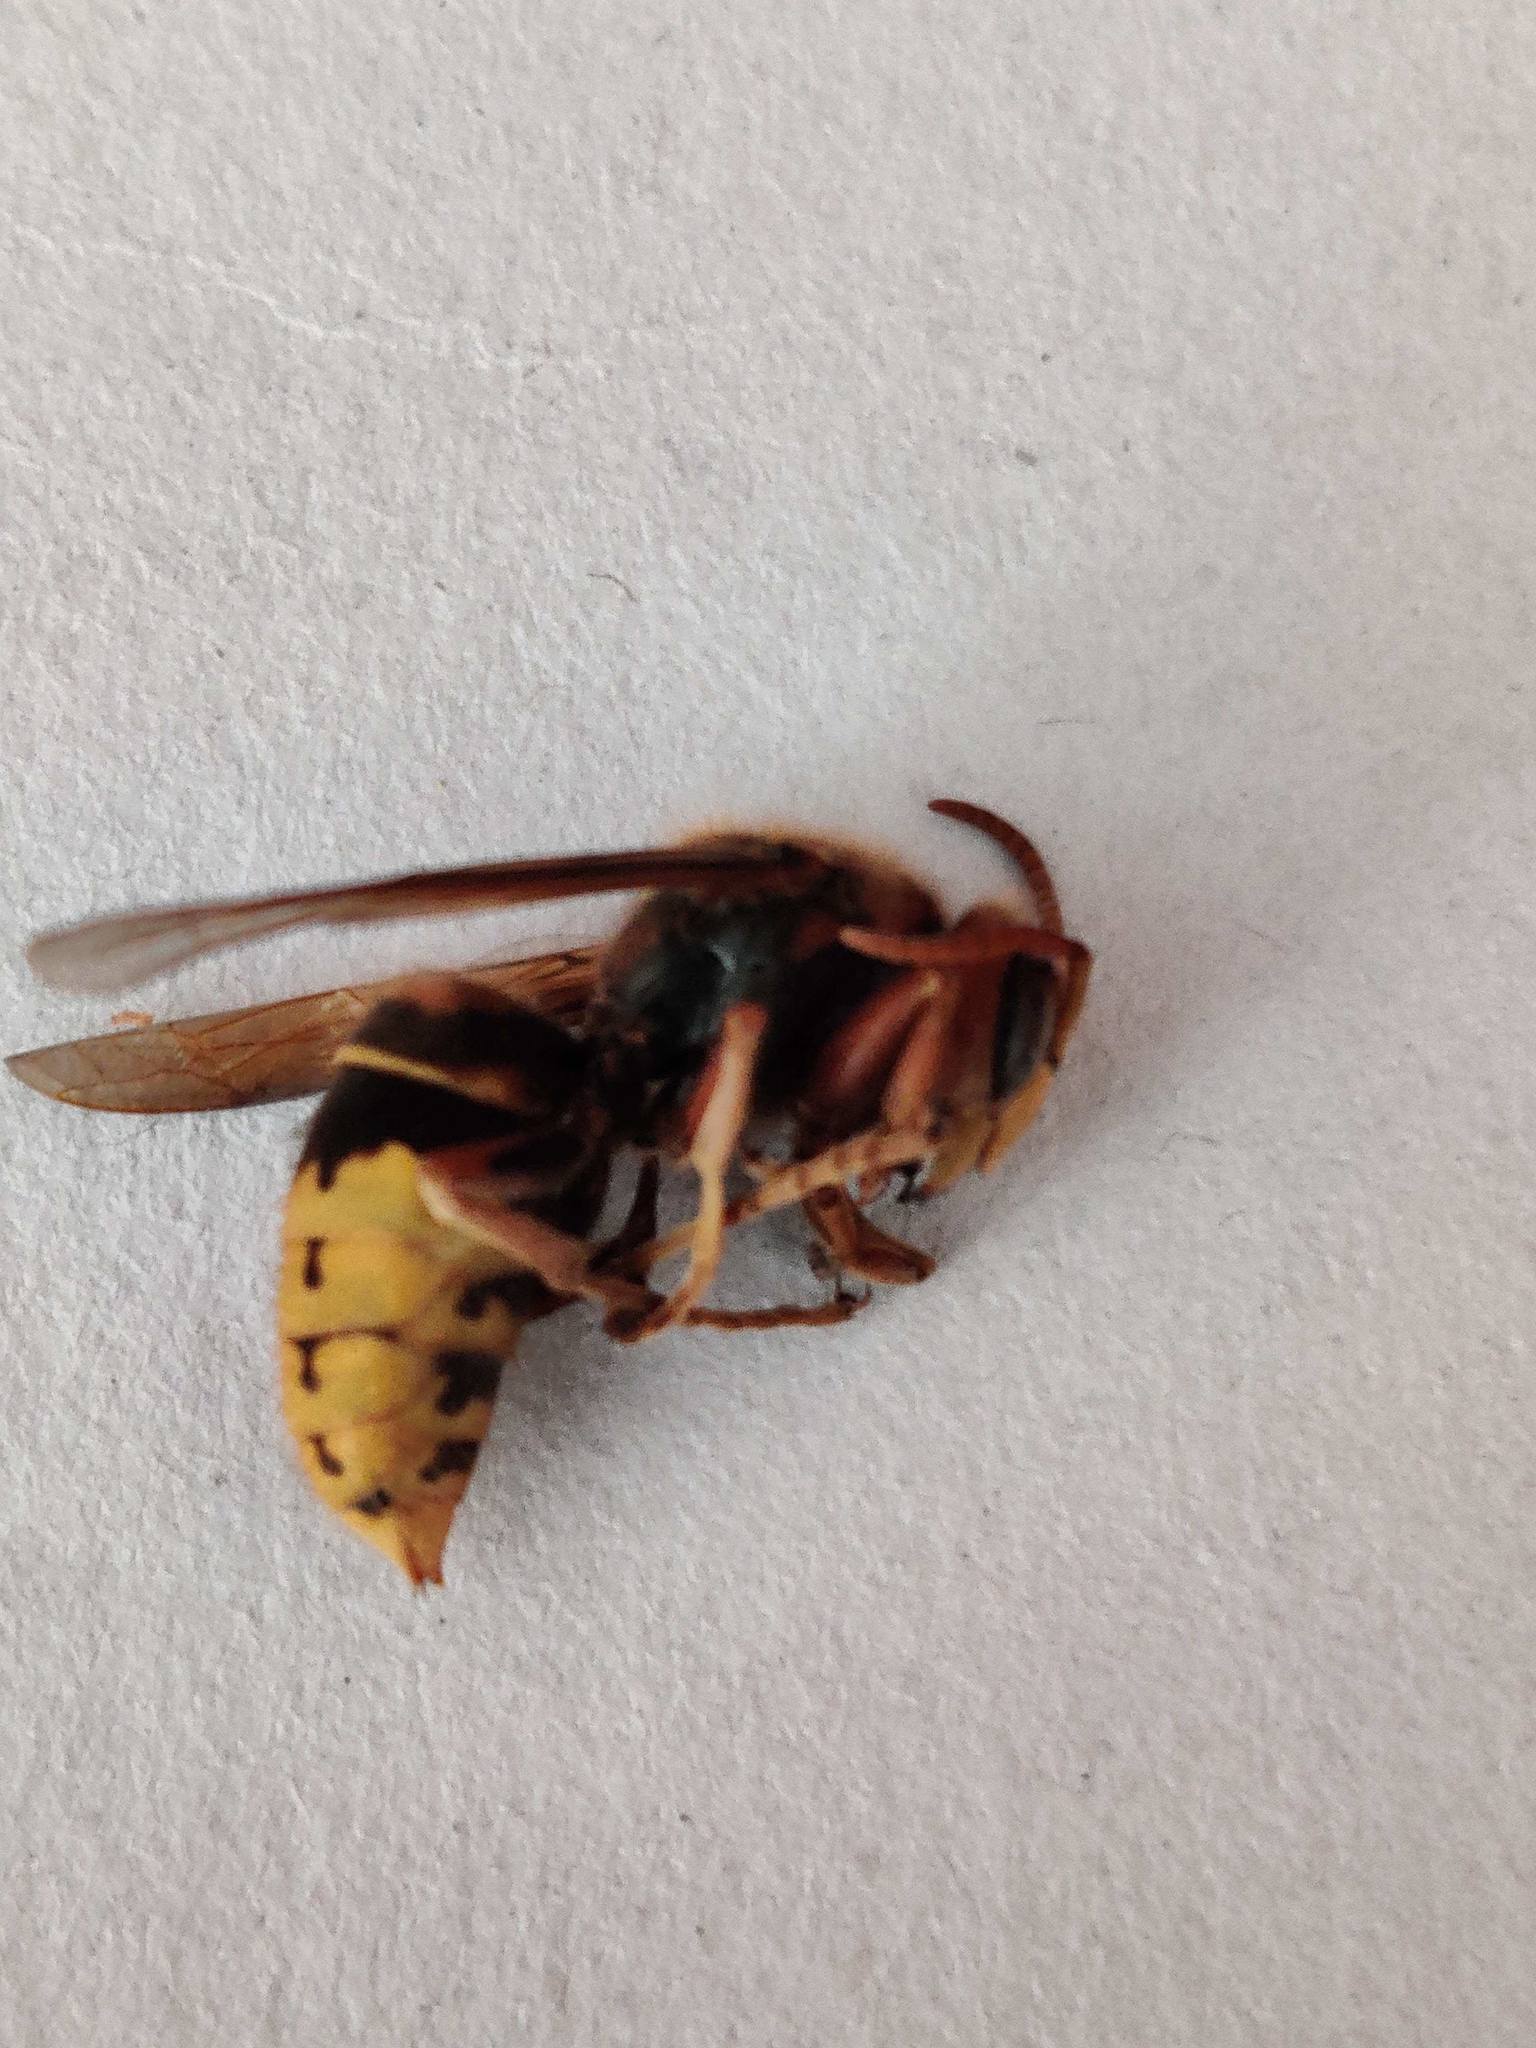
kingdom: Animalia
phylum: Arthropoda
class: Insecta
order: Hymenoptera
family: Vespidae
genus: Vespa
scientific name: Vespa crabro
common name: Hornet
